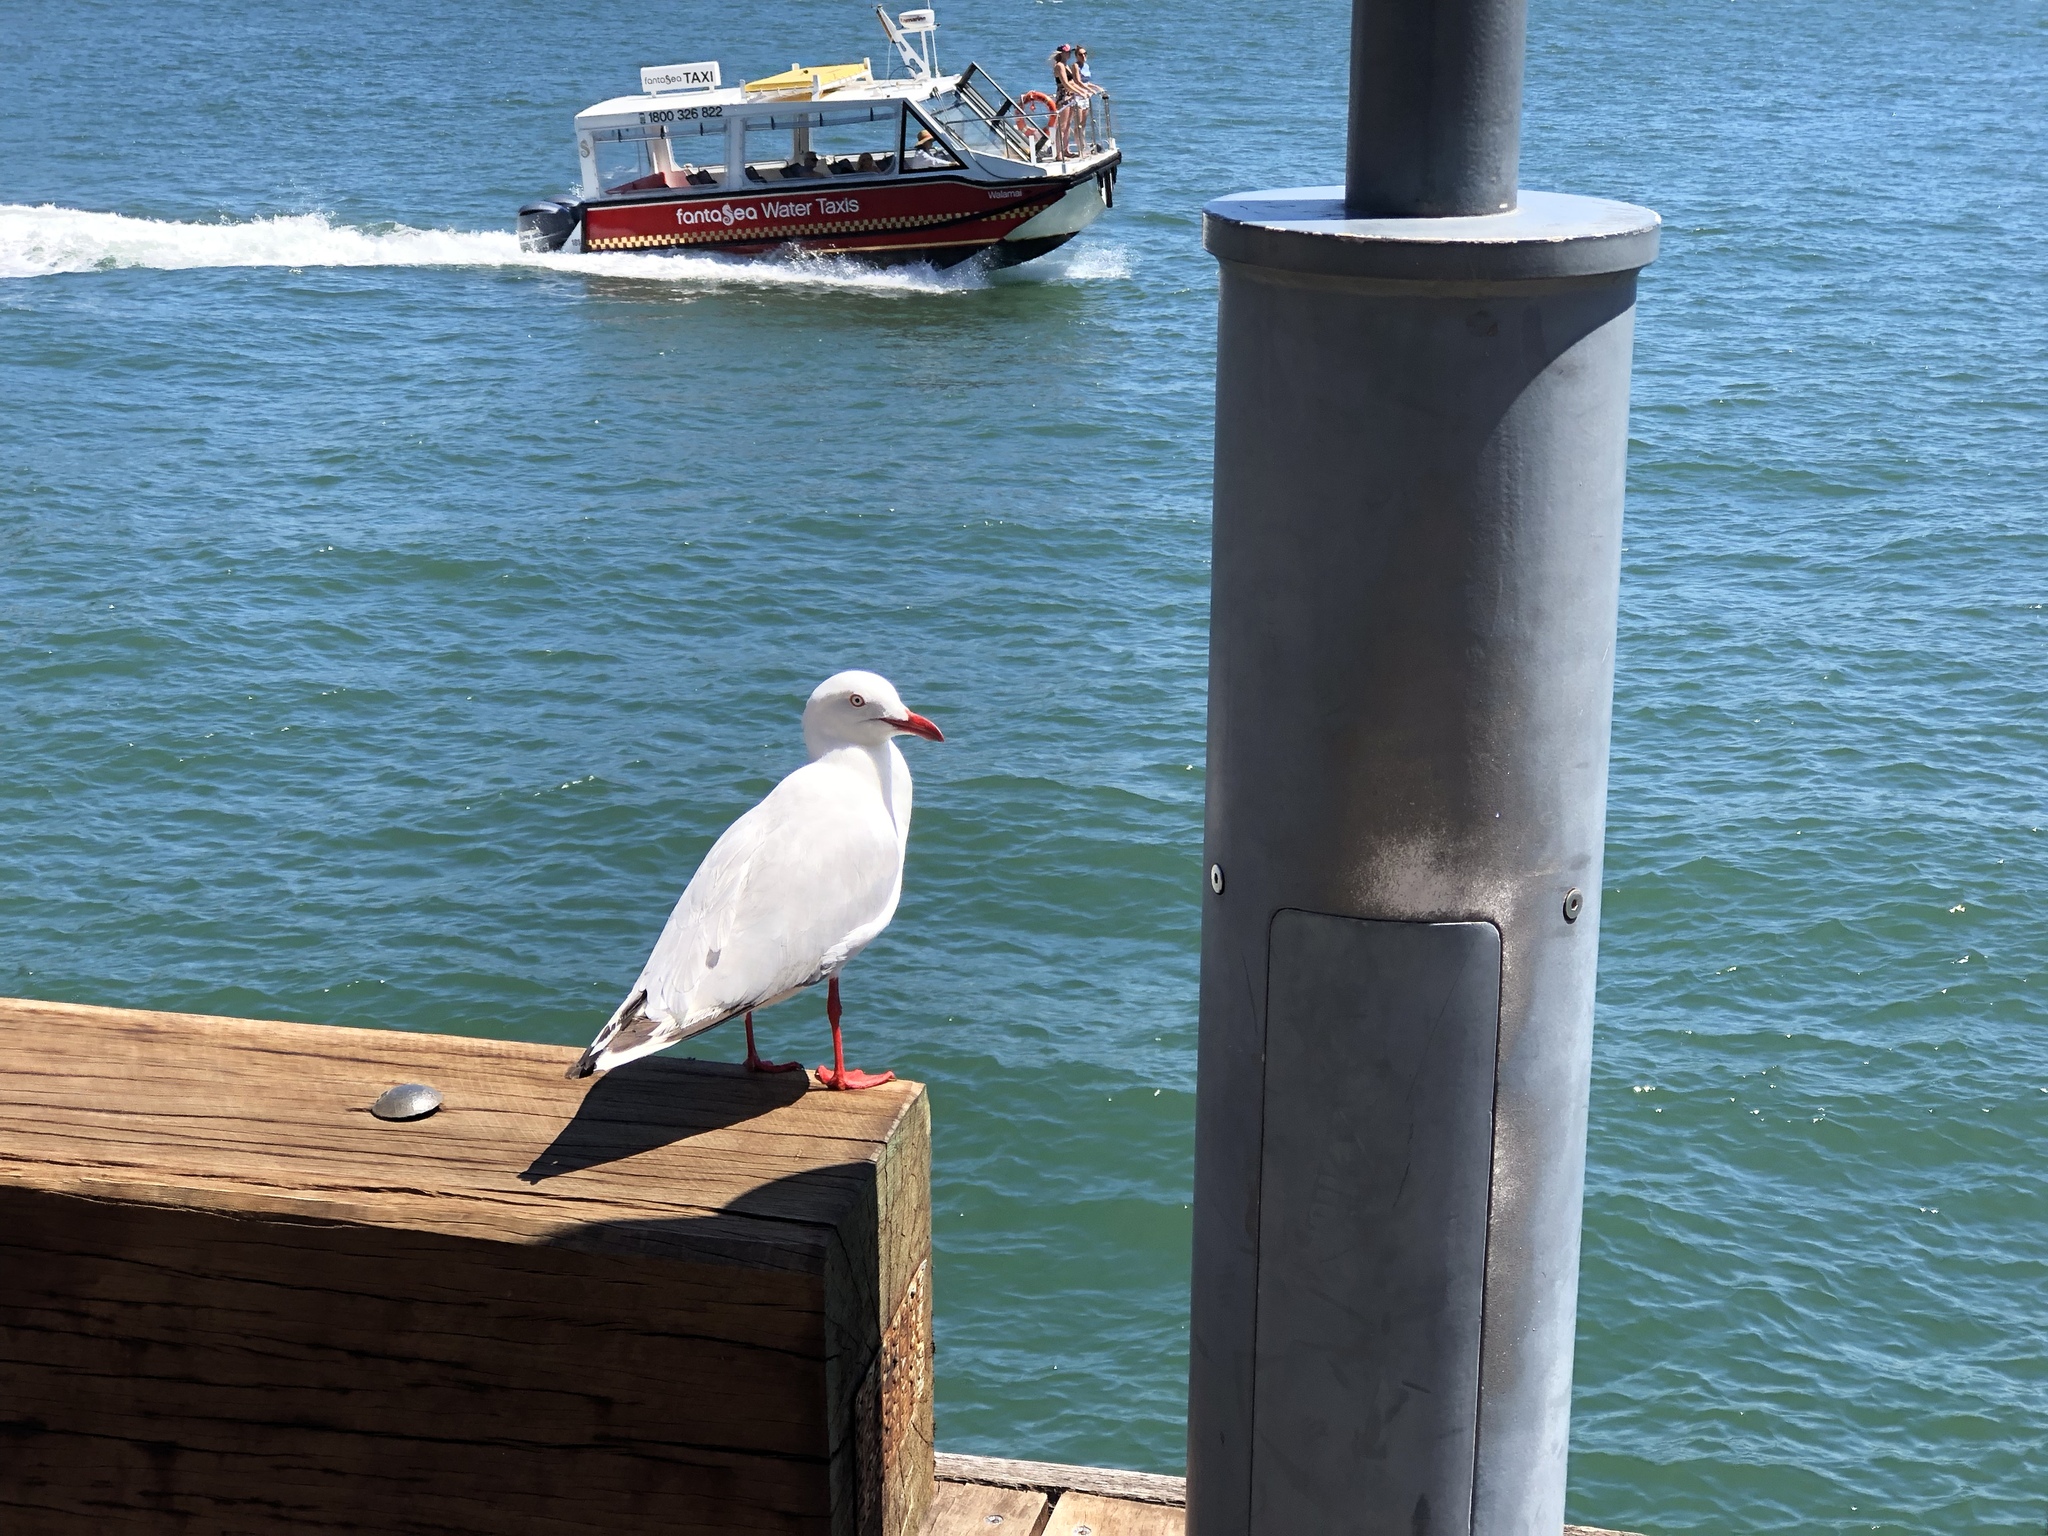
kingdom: Animalia
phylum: Chordata
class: Aves
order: Charadriiformes
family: Laridae
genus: Chroicocephalus
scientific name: Chroicocephalus novaehollandiae
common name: Silver gull
